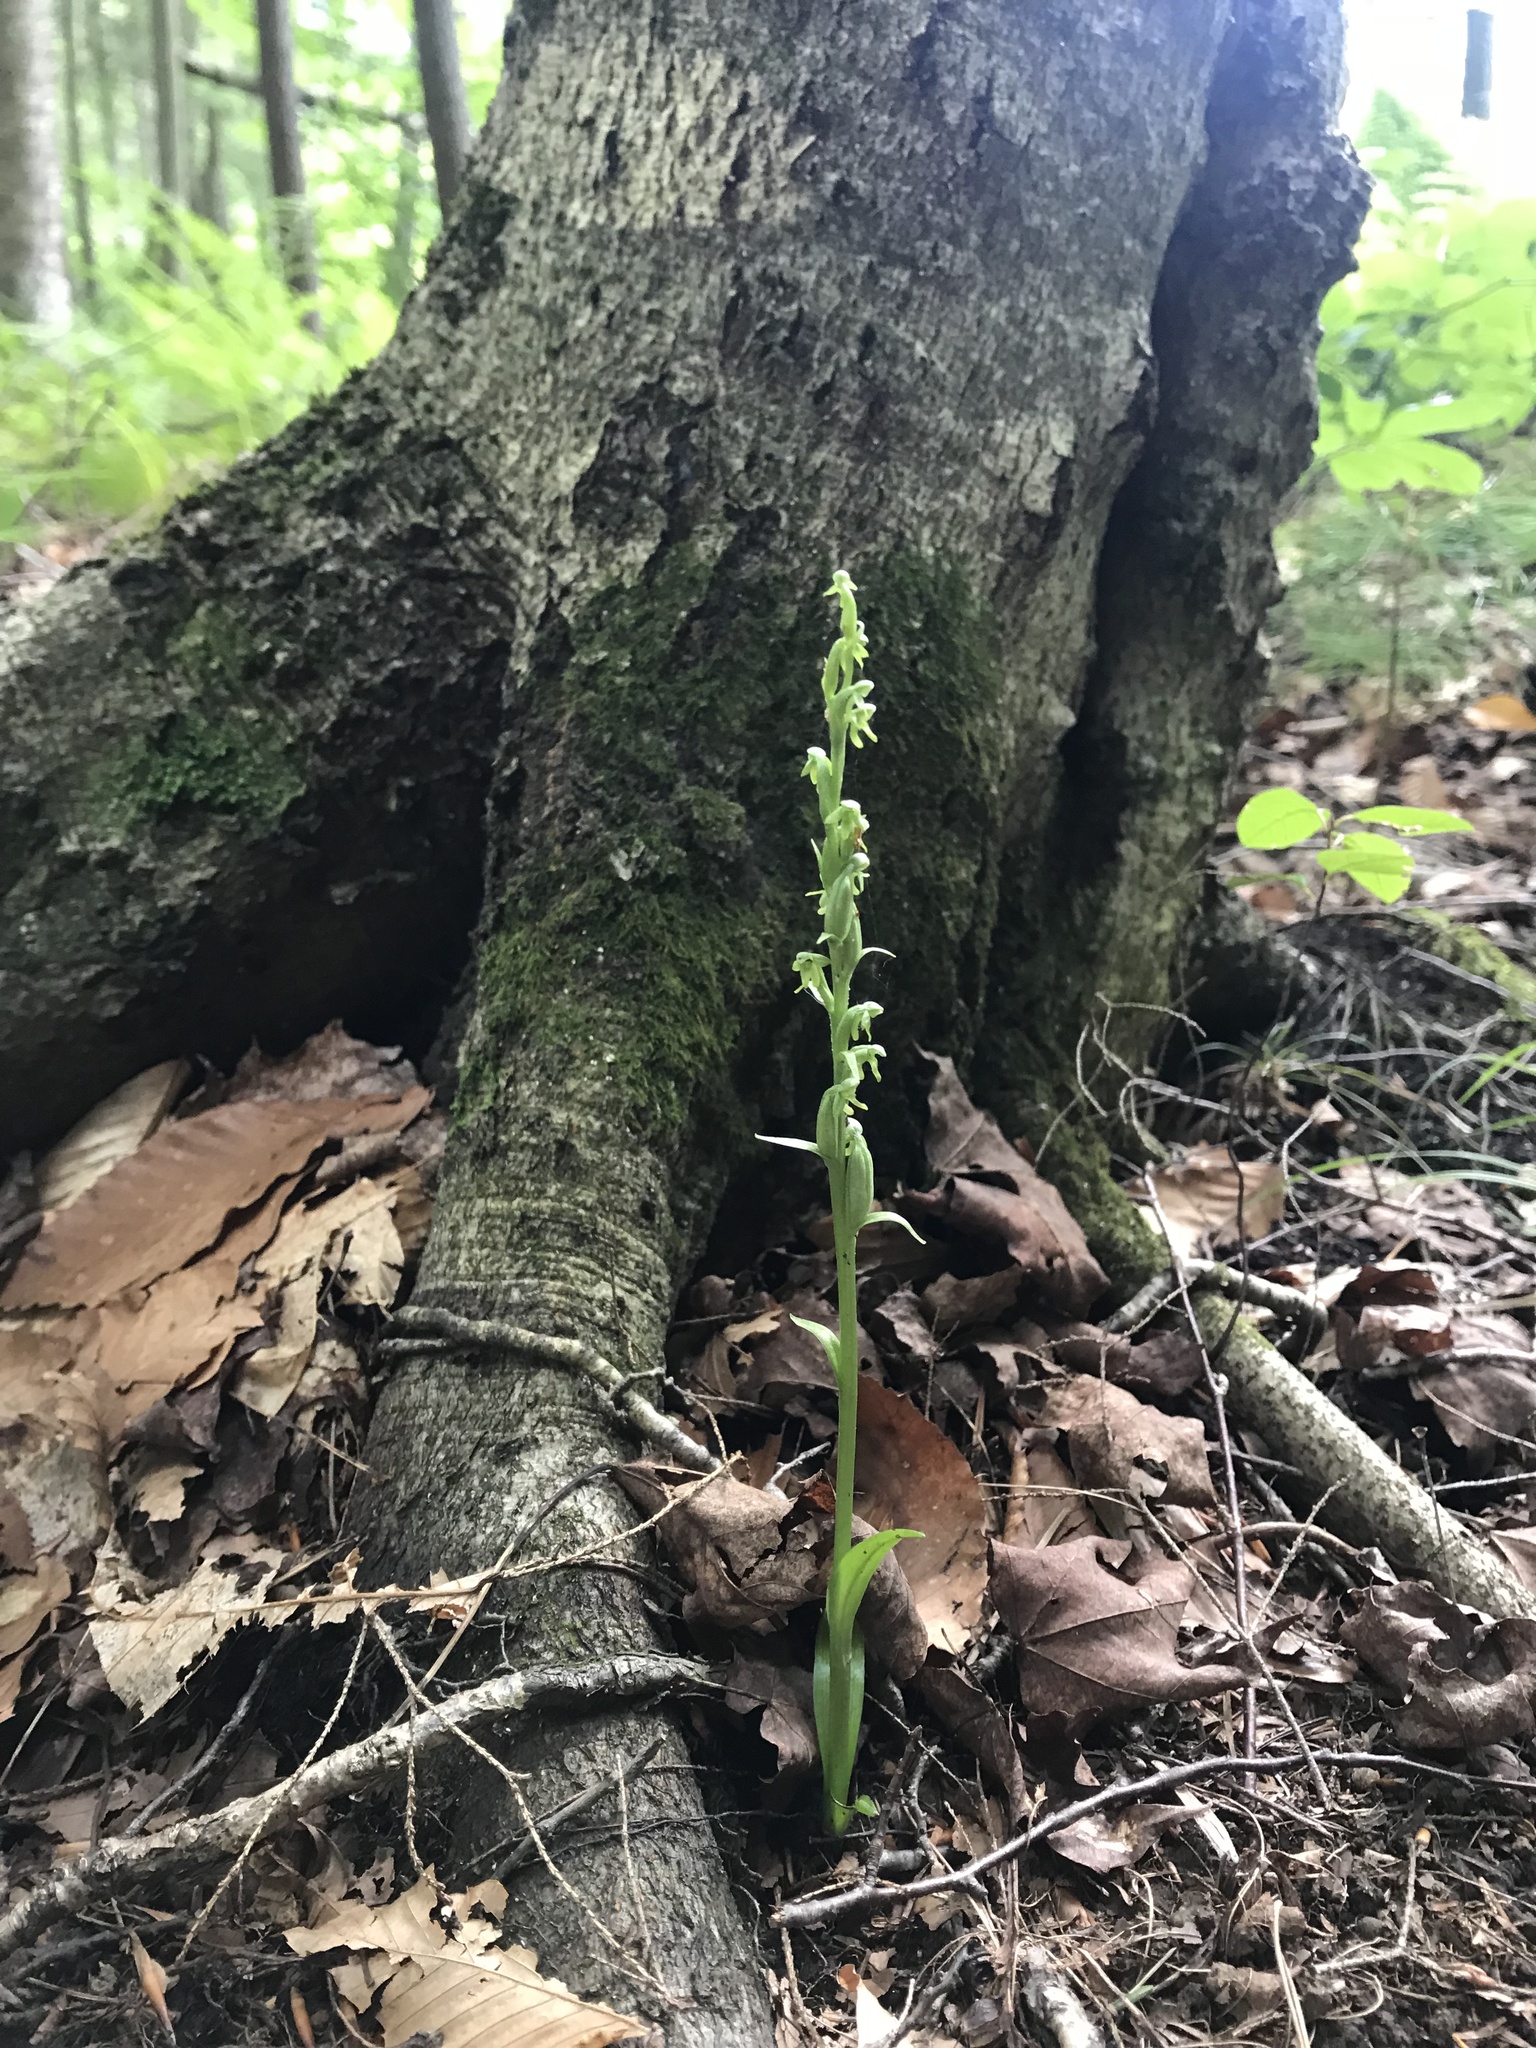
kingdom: Plantae
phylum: Tracheophyta
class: Liliopsida
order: Asparagales
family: Orchidaceae
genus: Platanthera
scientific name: Platanthera aquilonis
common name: Northern green orchid
